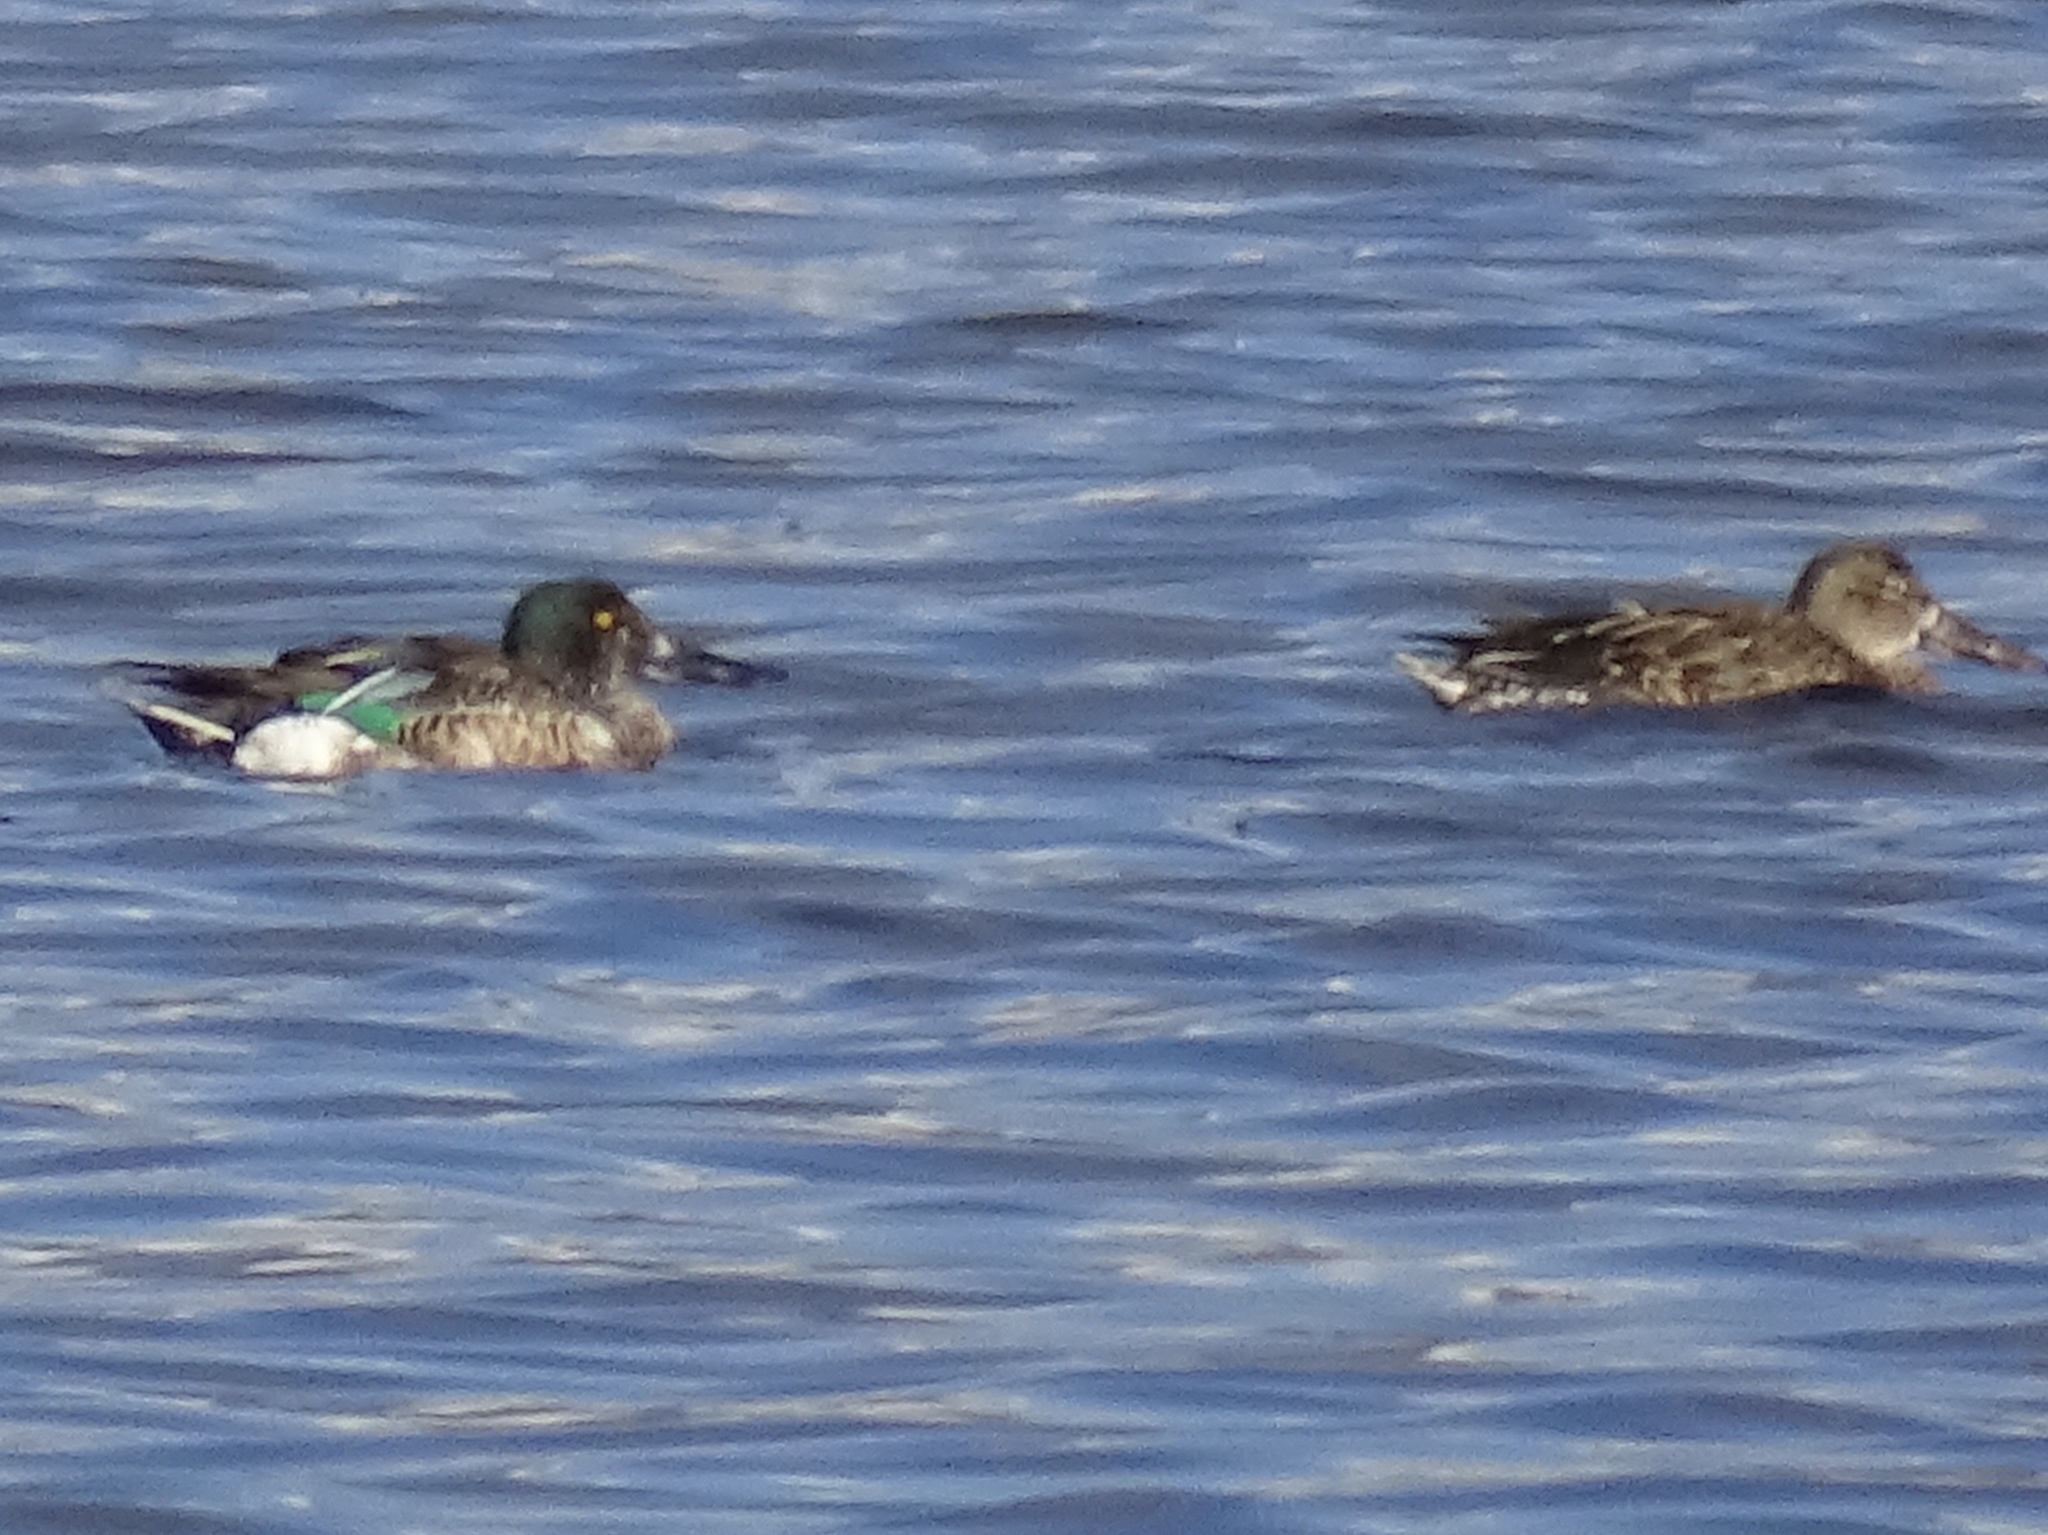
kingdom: Animalia
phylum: Chordata
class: Aves
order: Anseriformes
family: Anatidae
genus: Spatula
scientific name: Spatula clypeata
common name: Northern shoveler
